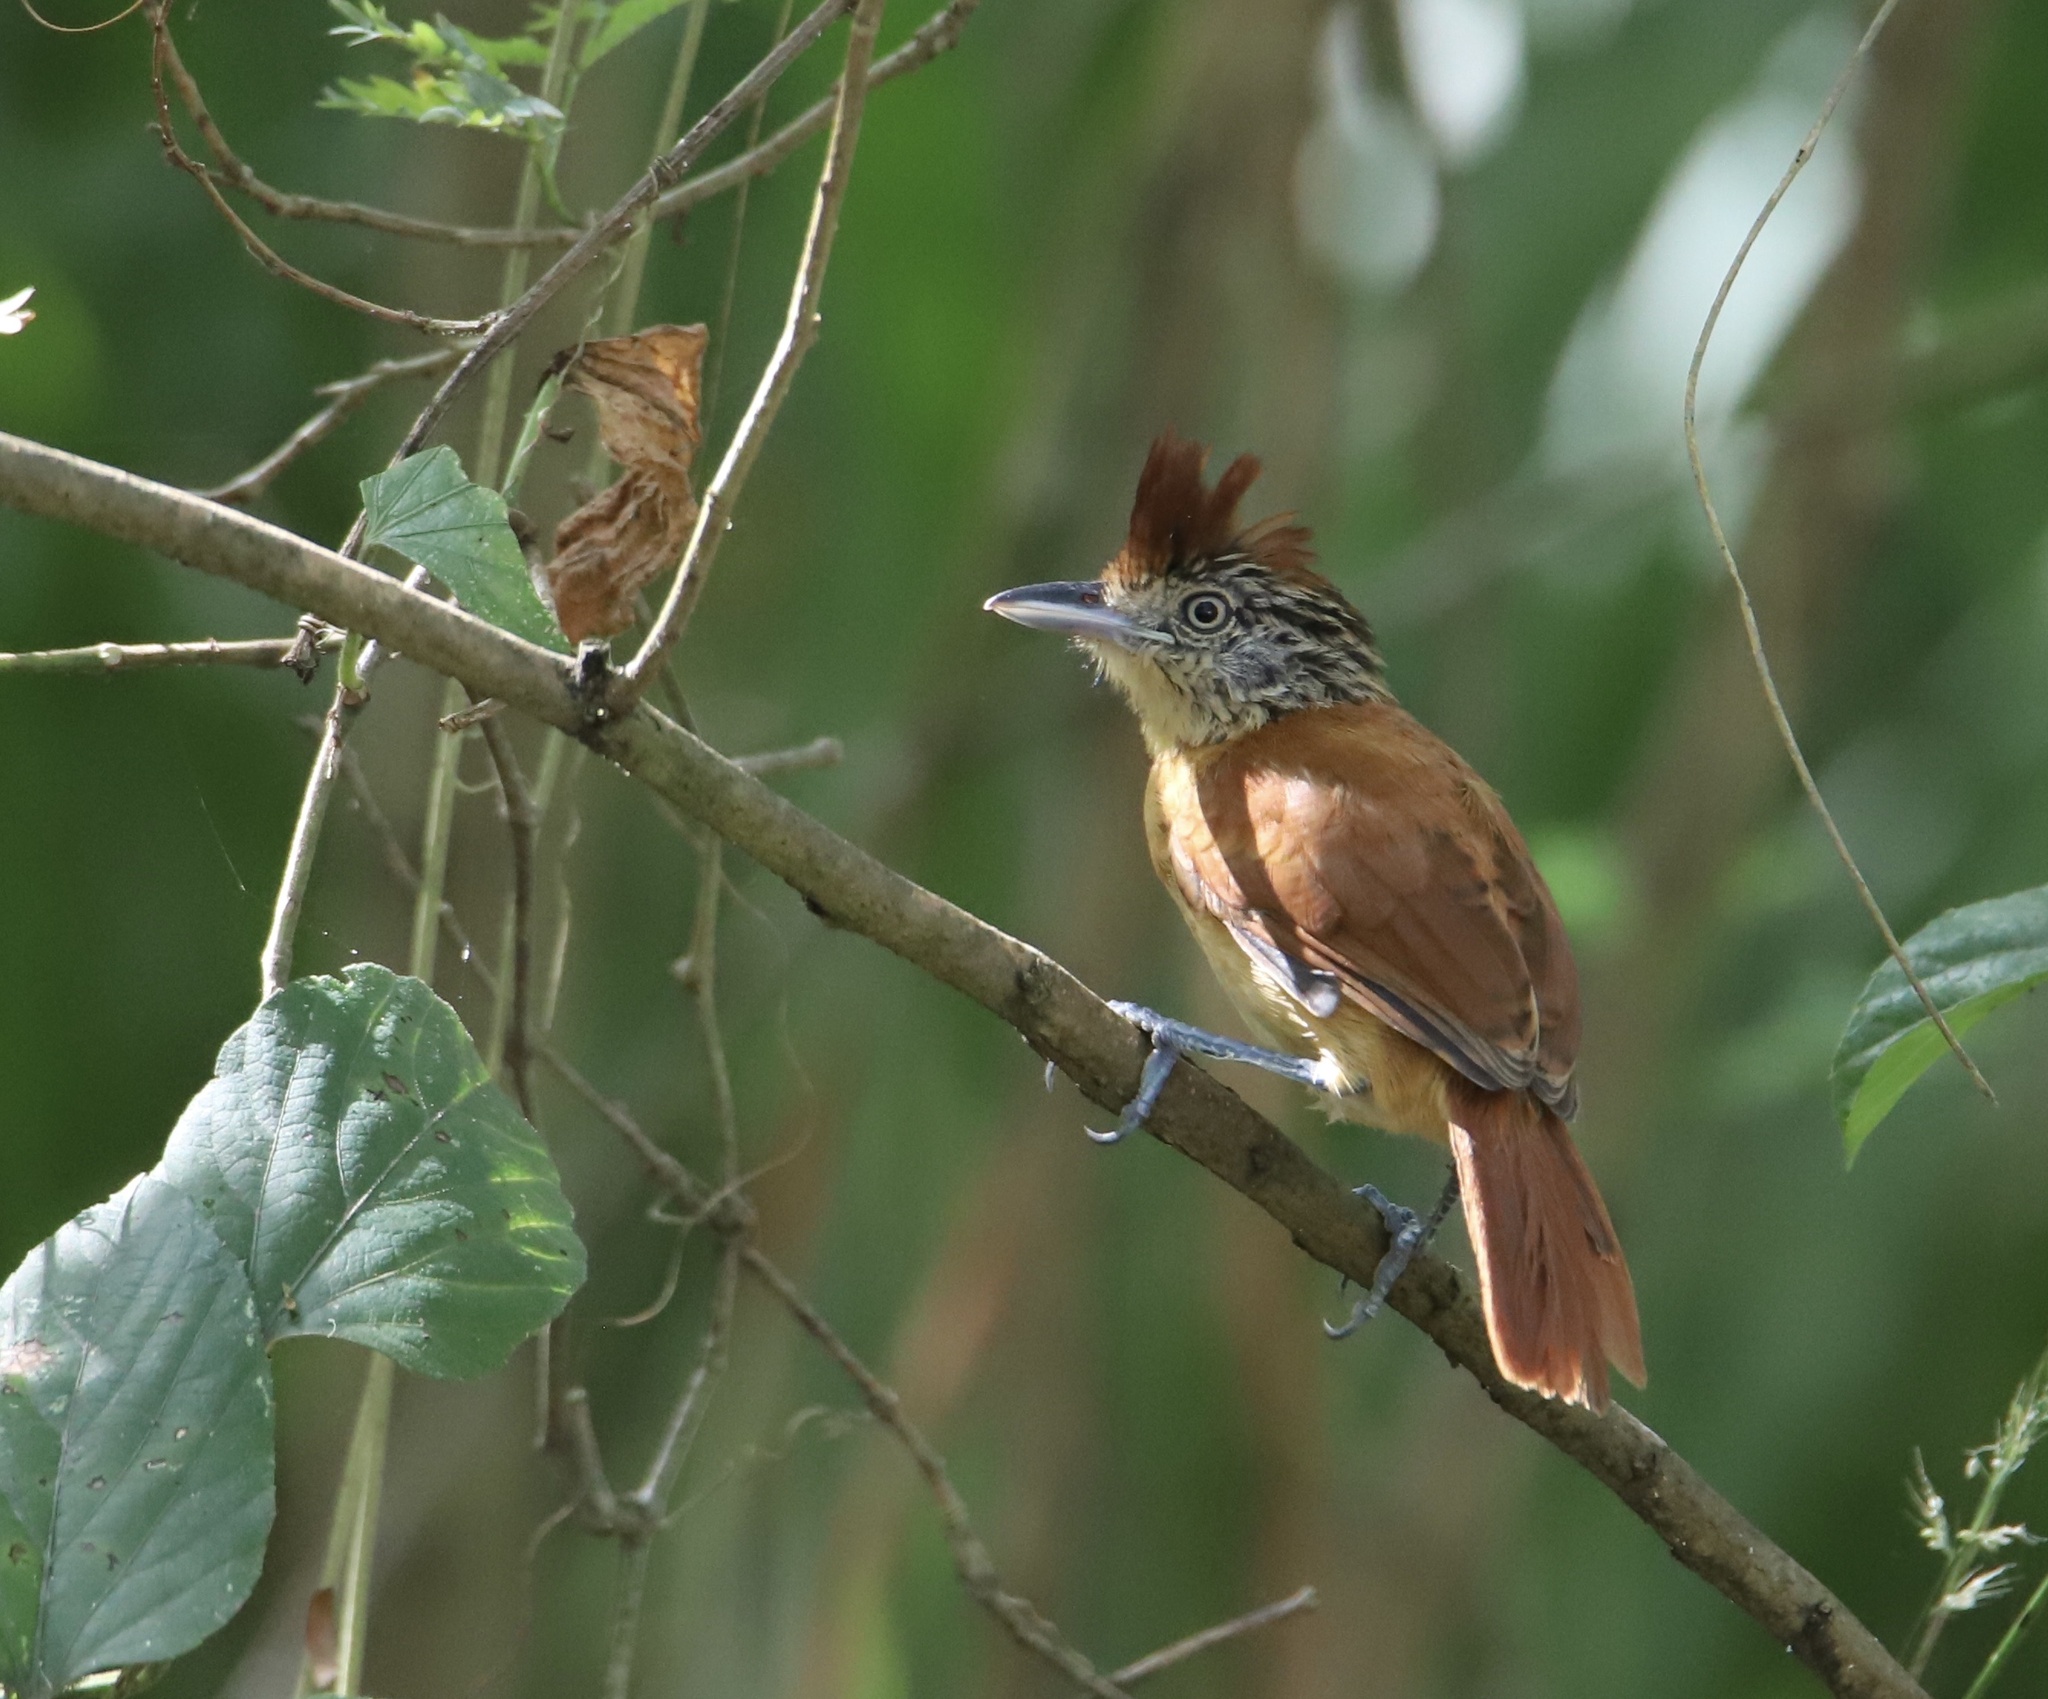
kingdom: Animalia
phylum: Chordata
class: Aves
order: Passeriformes
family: Thamnophilidae
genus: Thamnophilus
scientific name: Thamnophilus doliatus
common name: Barred antshrike
